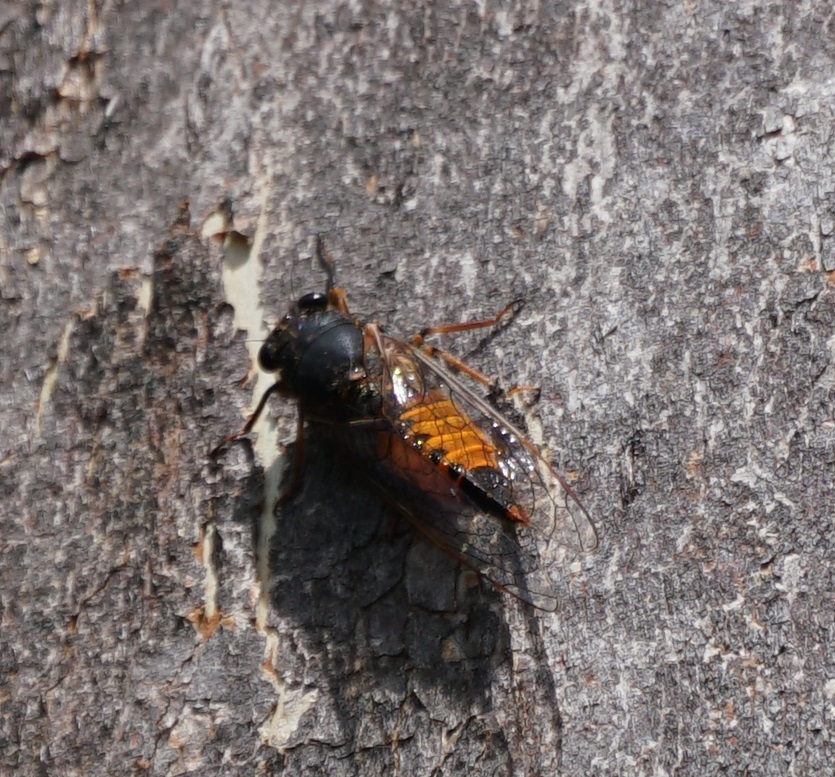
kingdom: Animalia
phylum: Arthropoda
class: Insecta
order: Hemiptera
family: Cicadidae
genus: Yoyetta
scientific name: Yoyetta ignita
